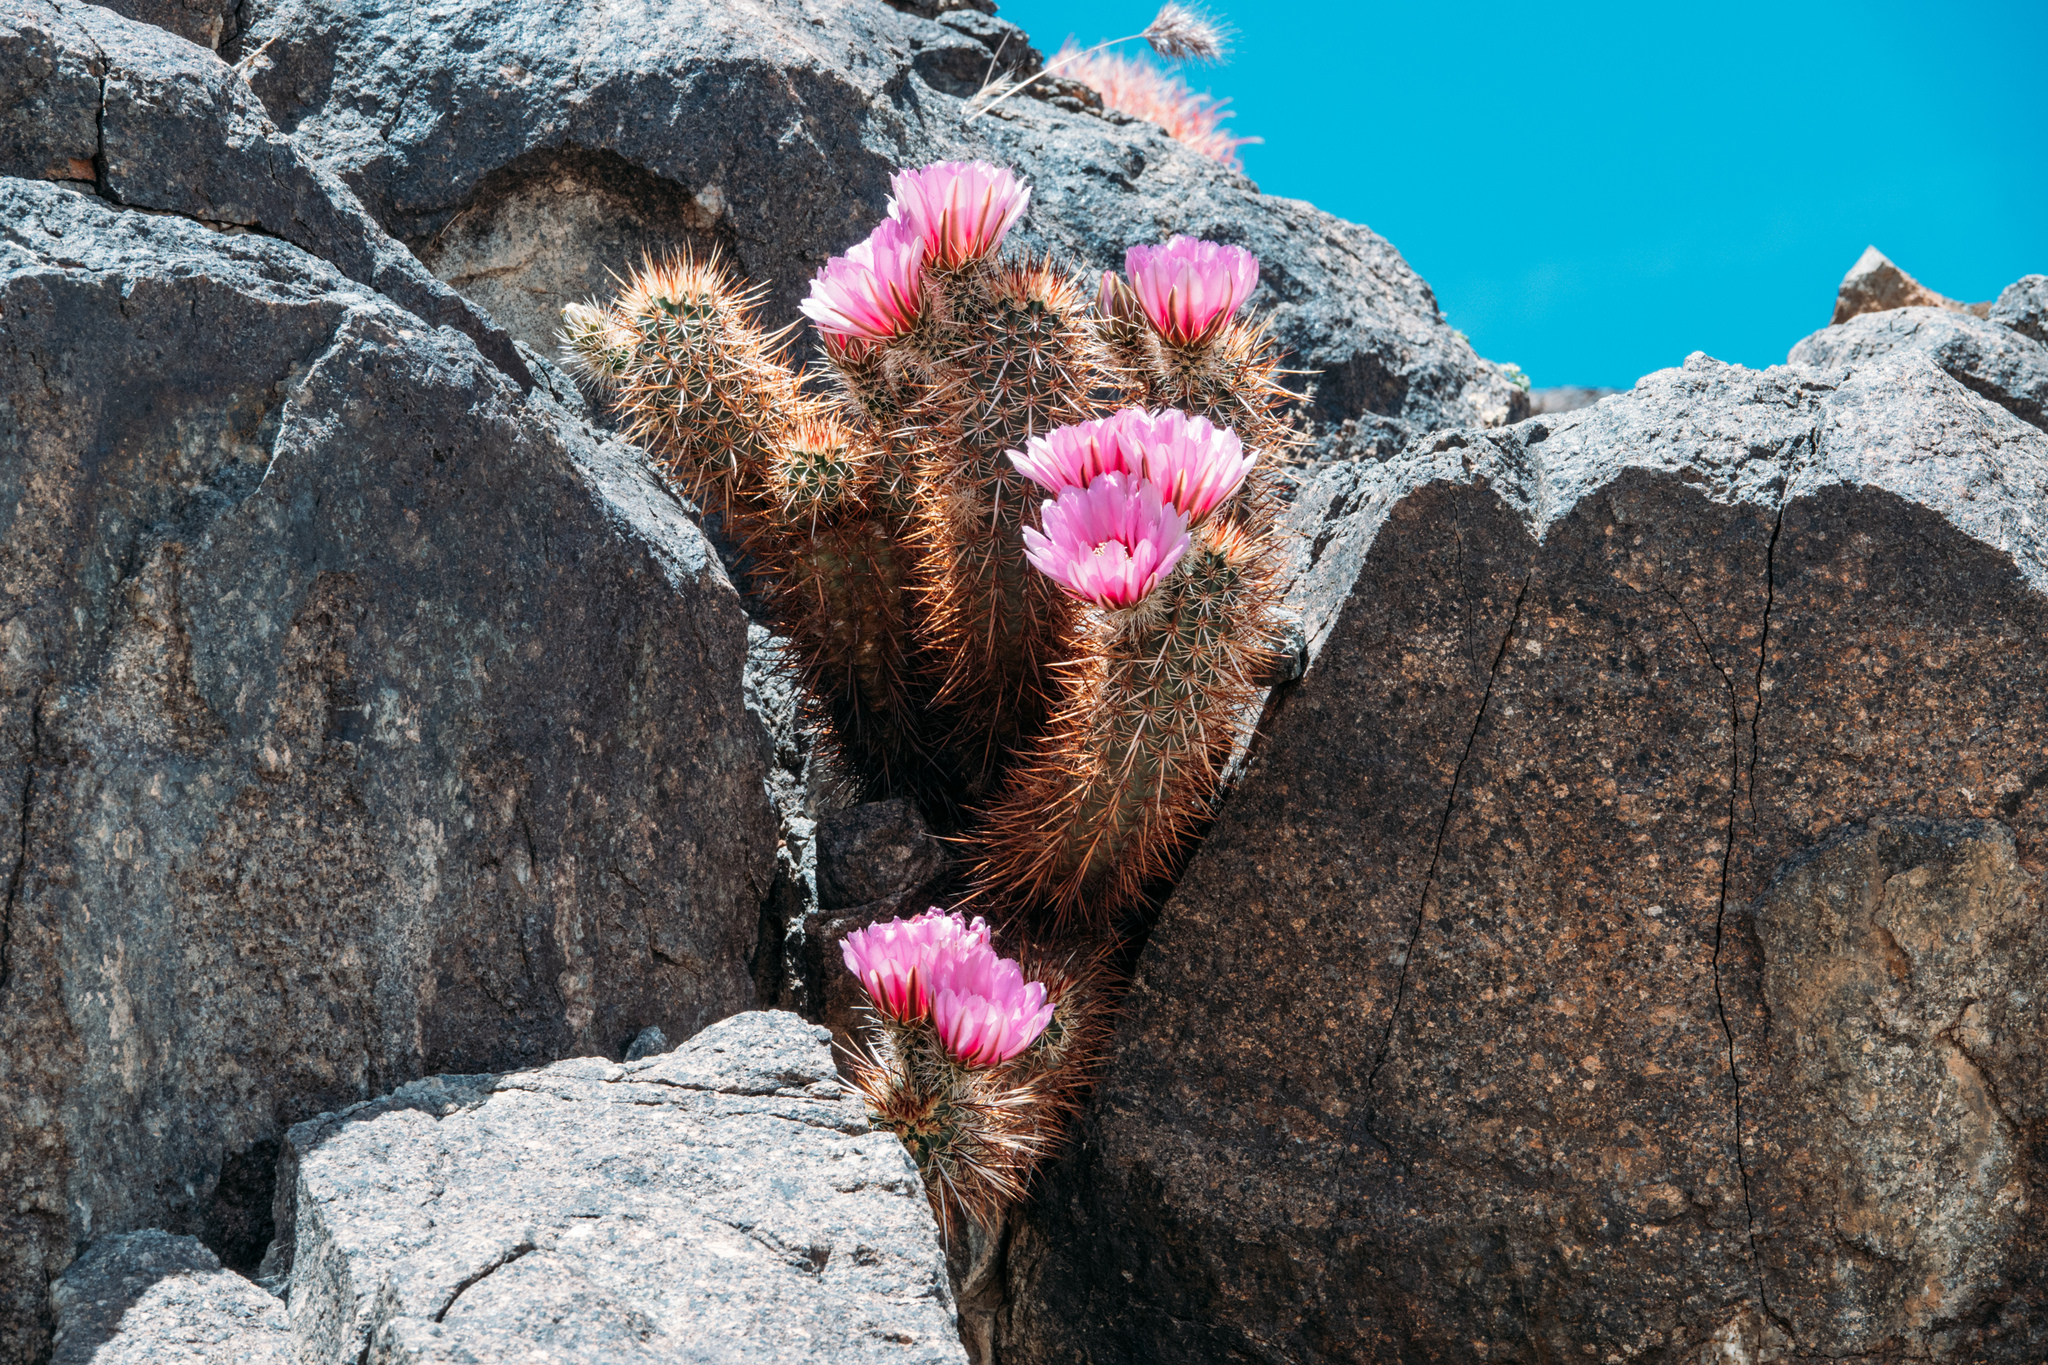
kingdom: Plantae
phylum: Tracheophyta
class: Magnoliopsida
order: Caryophyllales
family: Cactaceae
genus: Echinocereus
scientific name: Echinocereus engelmannii
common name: Engelmann's hedgehog cactus
